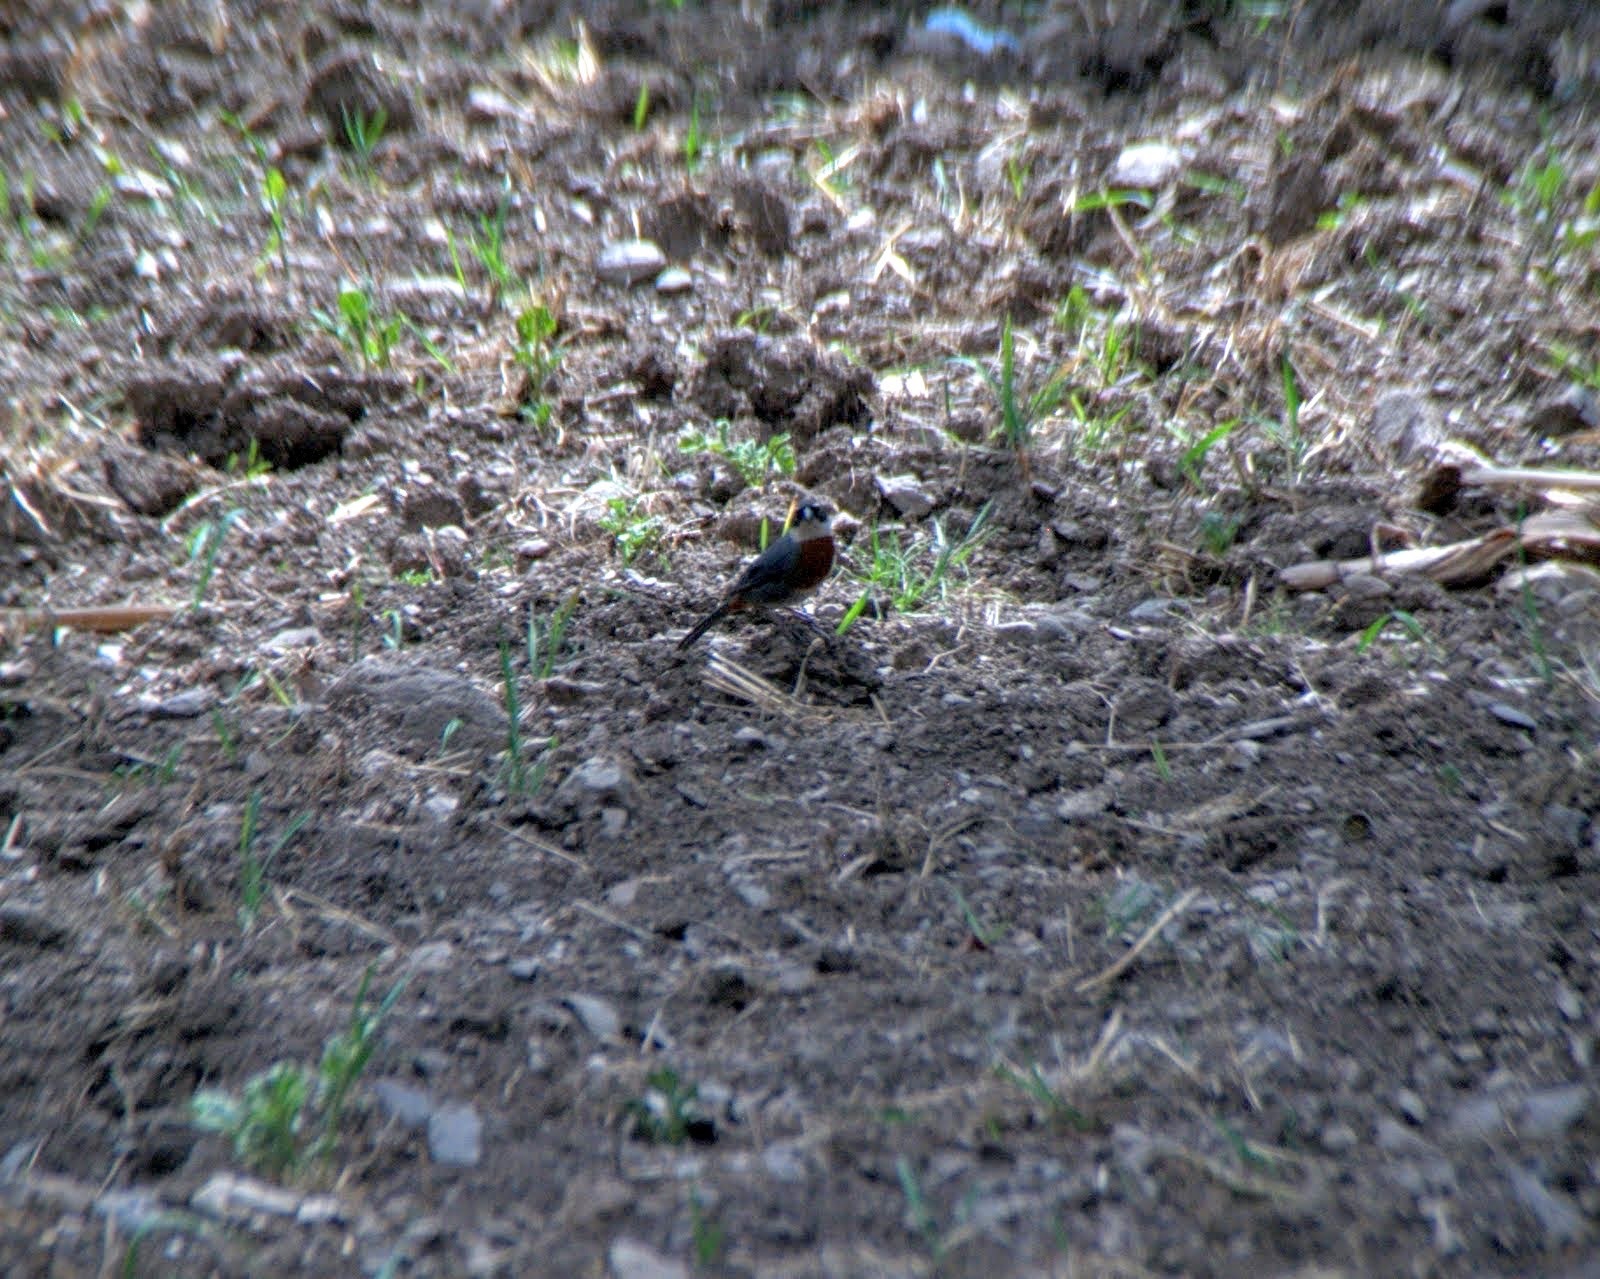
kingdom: Animalia
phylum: Chordata
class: Aves
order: Passeriformes
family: Thraupidae
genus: Poospizopsis
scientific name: Poospizopsis caesar
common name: Chestnut-breasted mountain-finch
